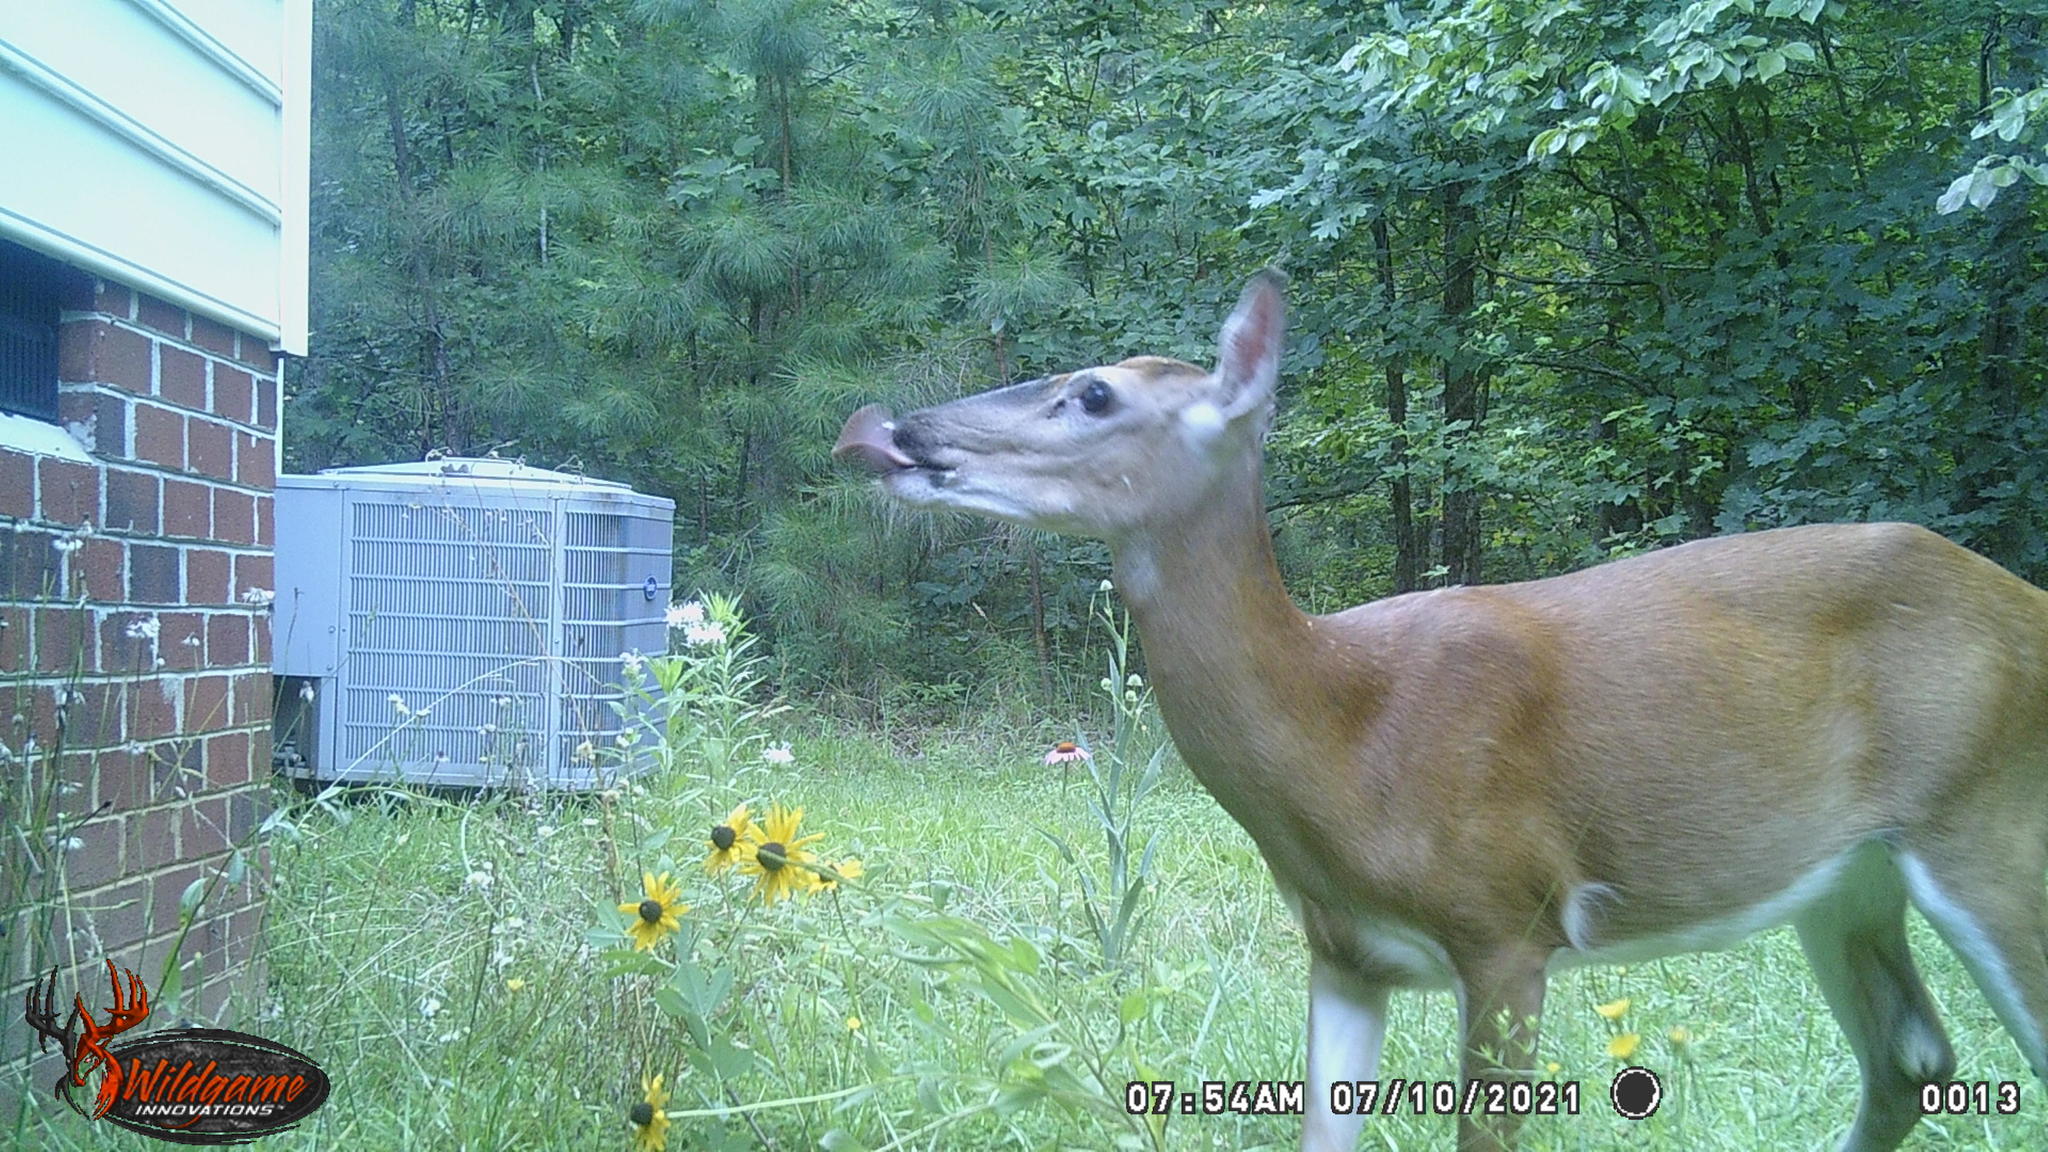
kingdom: Animalia
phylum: Chordata
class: Mammalia
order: Artiodactyla
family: Cervidae
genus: Odocoileus
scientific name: Odocoileus virginianus
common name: White-tailed deer
